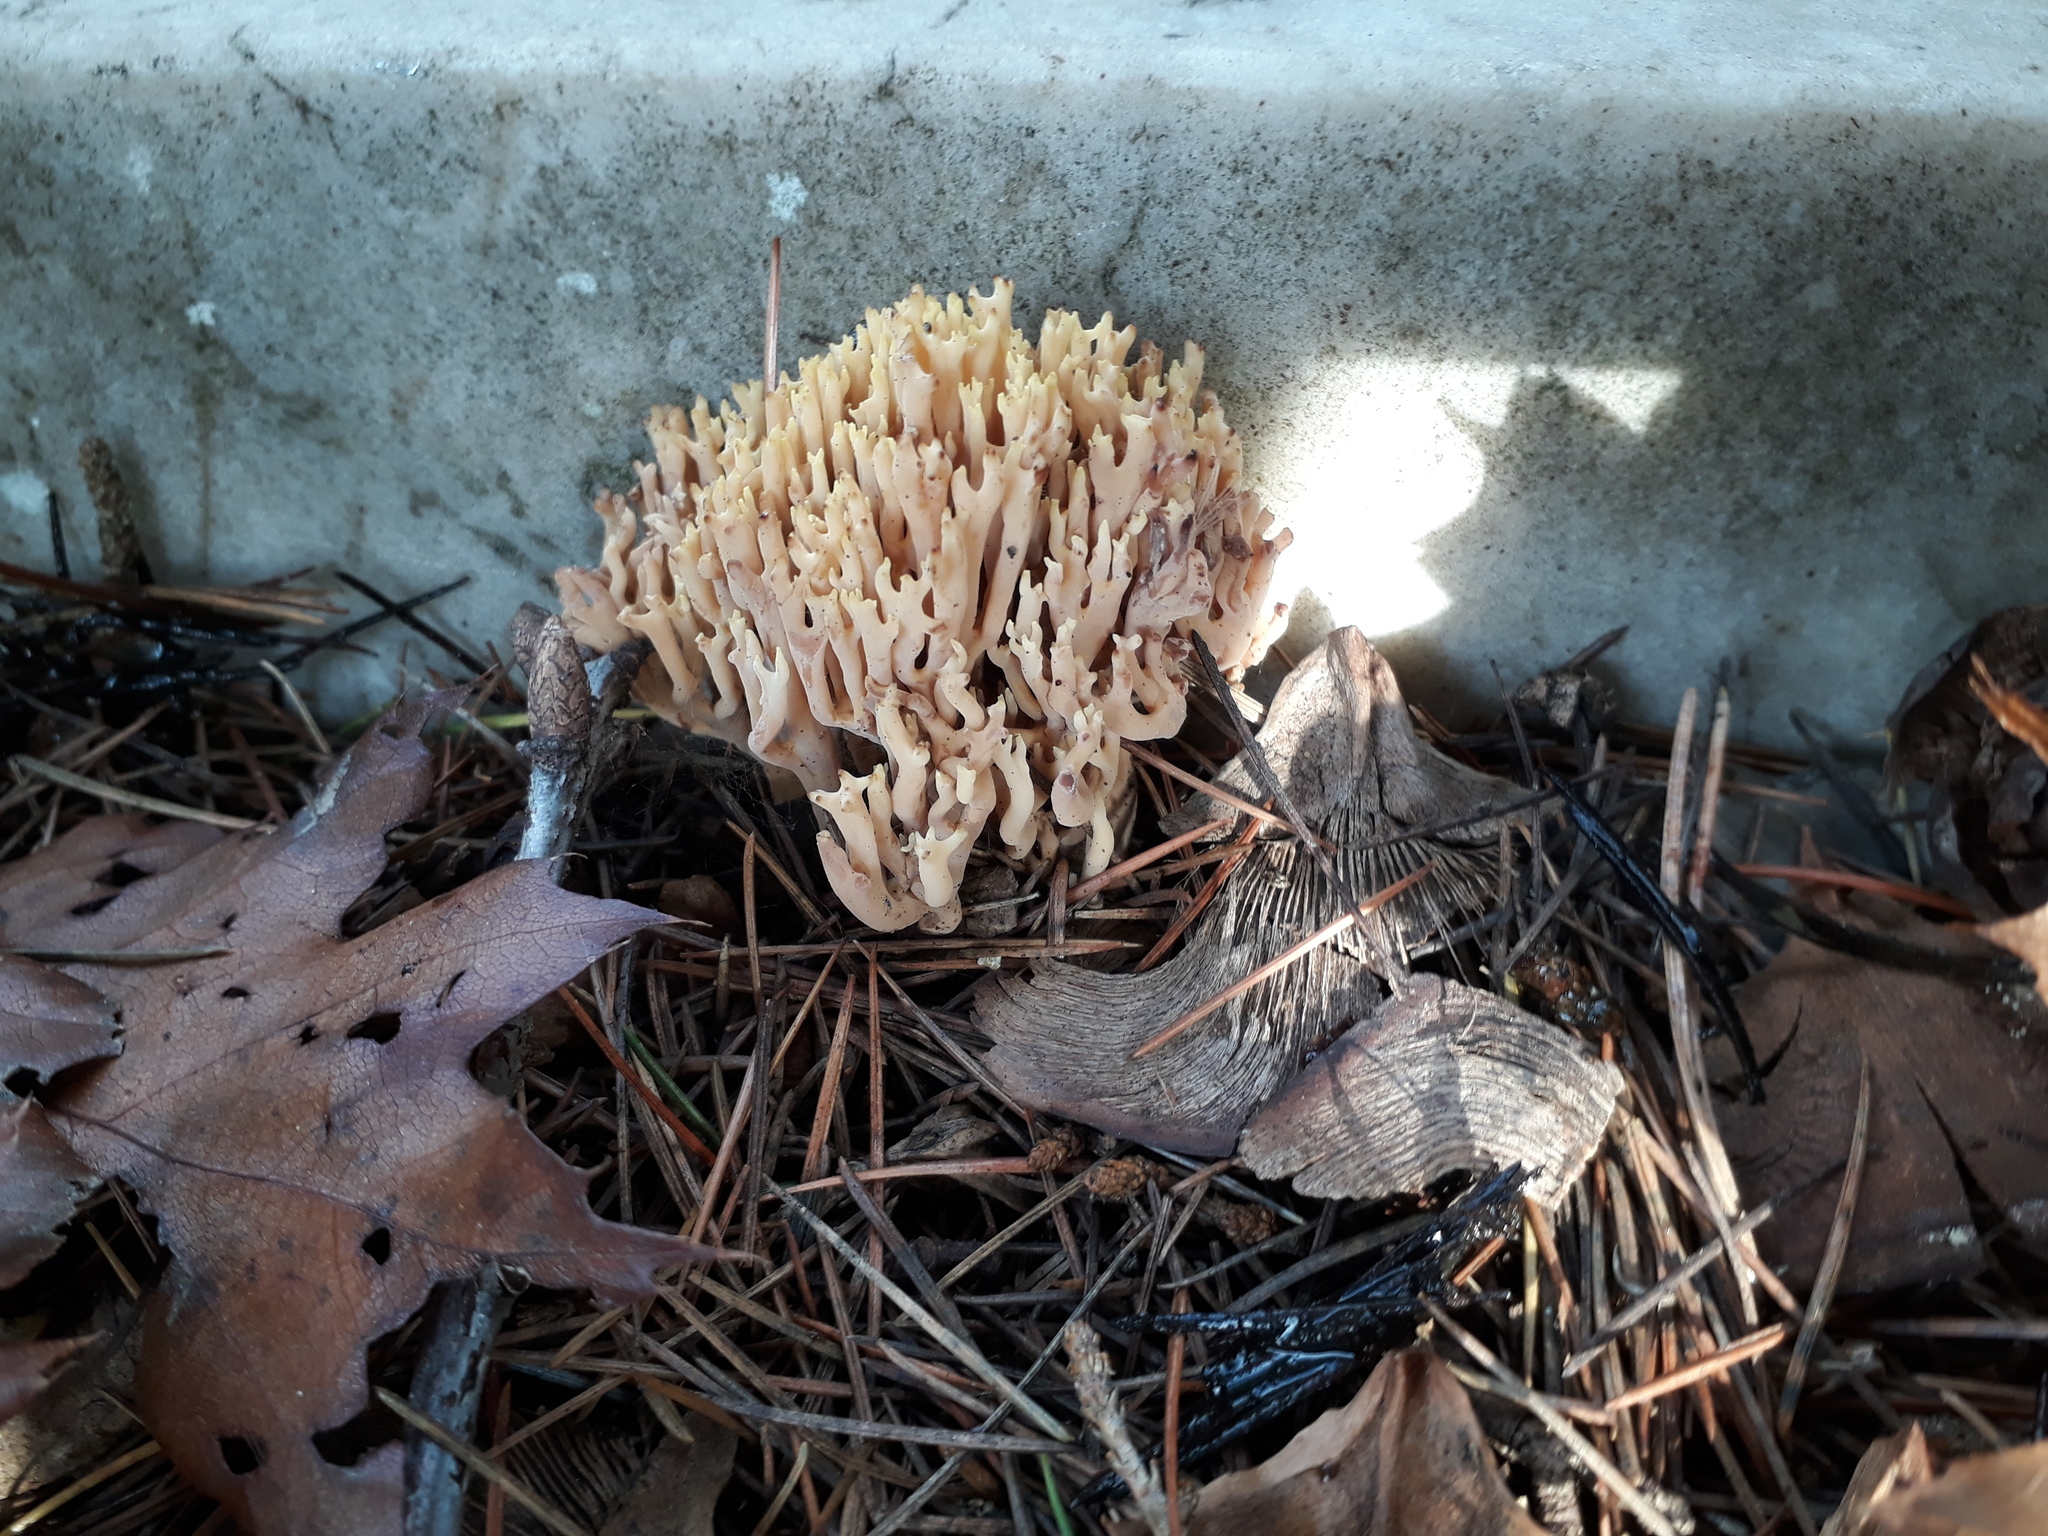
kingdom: Fungi
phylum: Basidiomycota
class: Agaricomycetes
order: Gomphales
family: Gomphaceae
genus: Ramaria
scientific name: Ramaria stricta
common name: Upright coral
